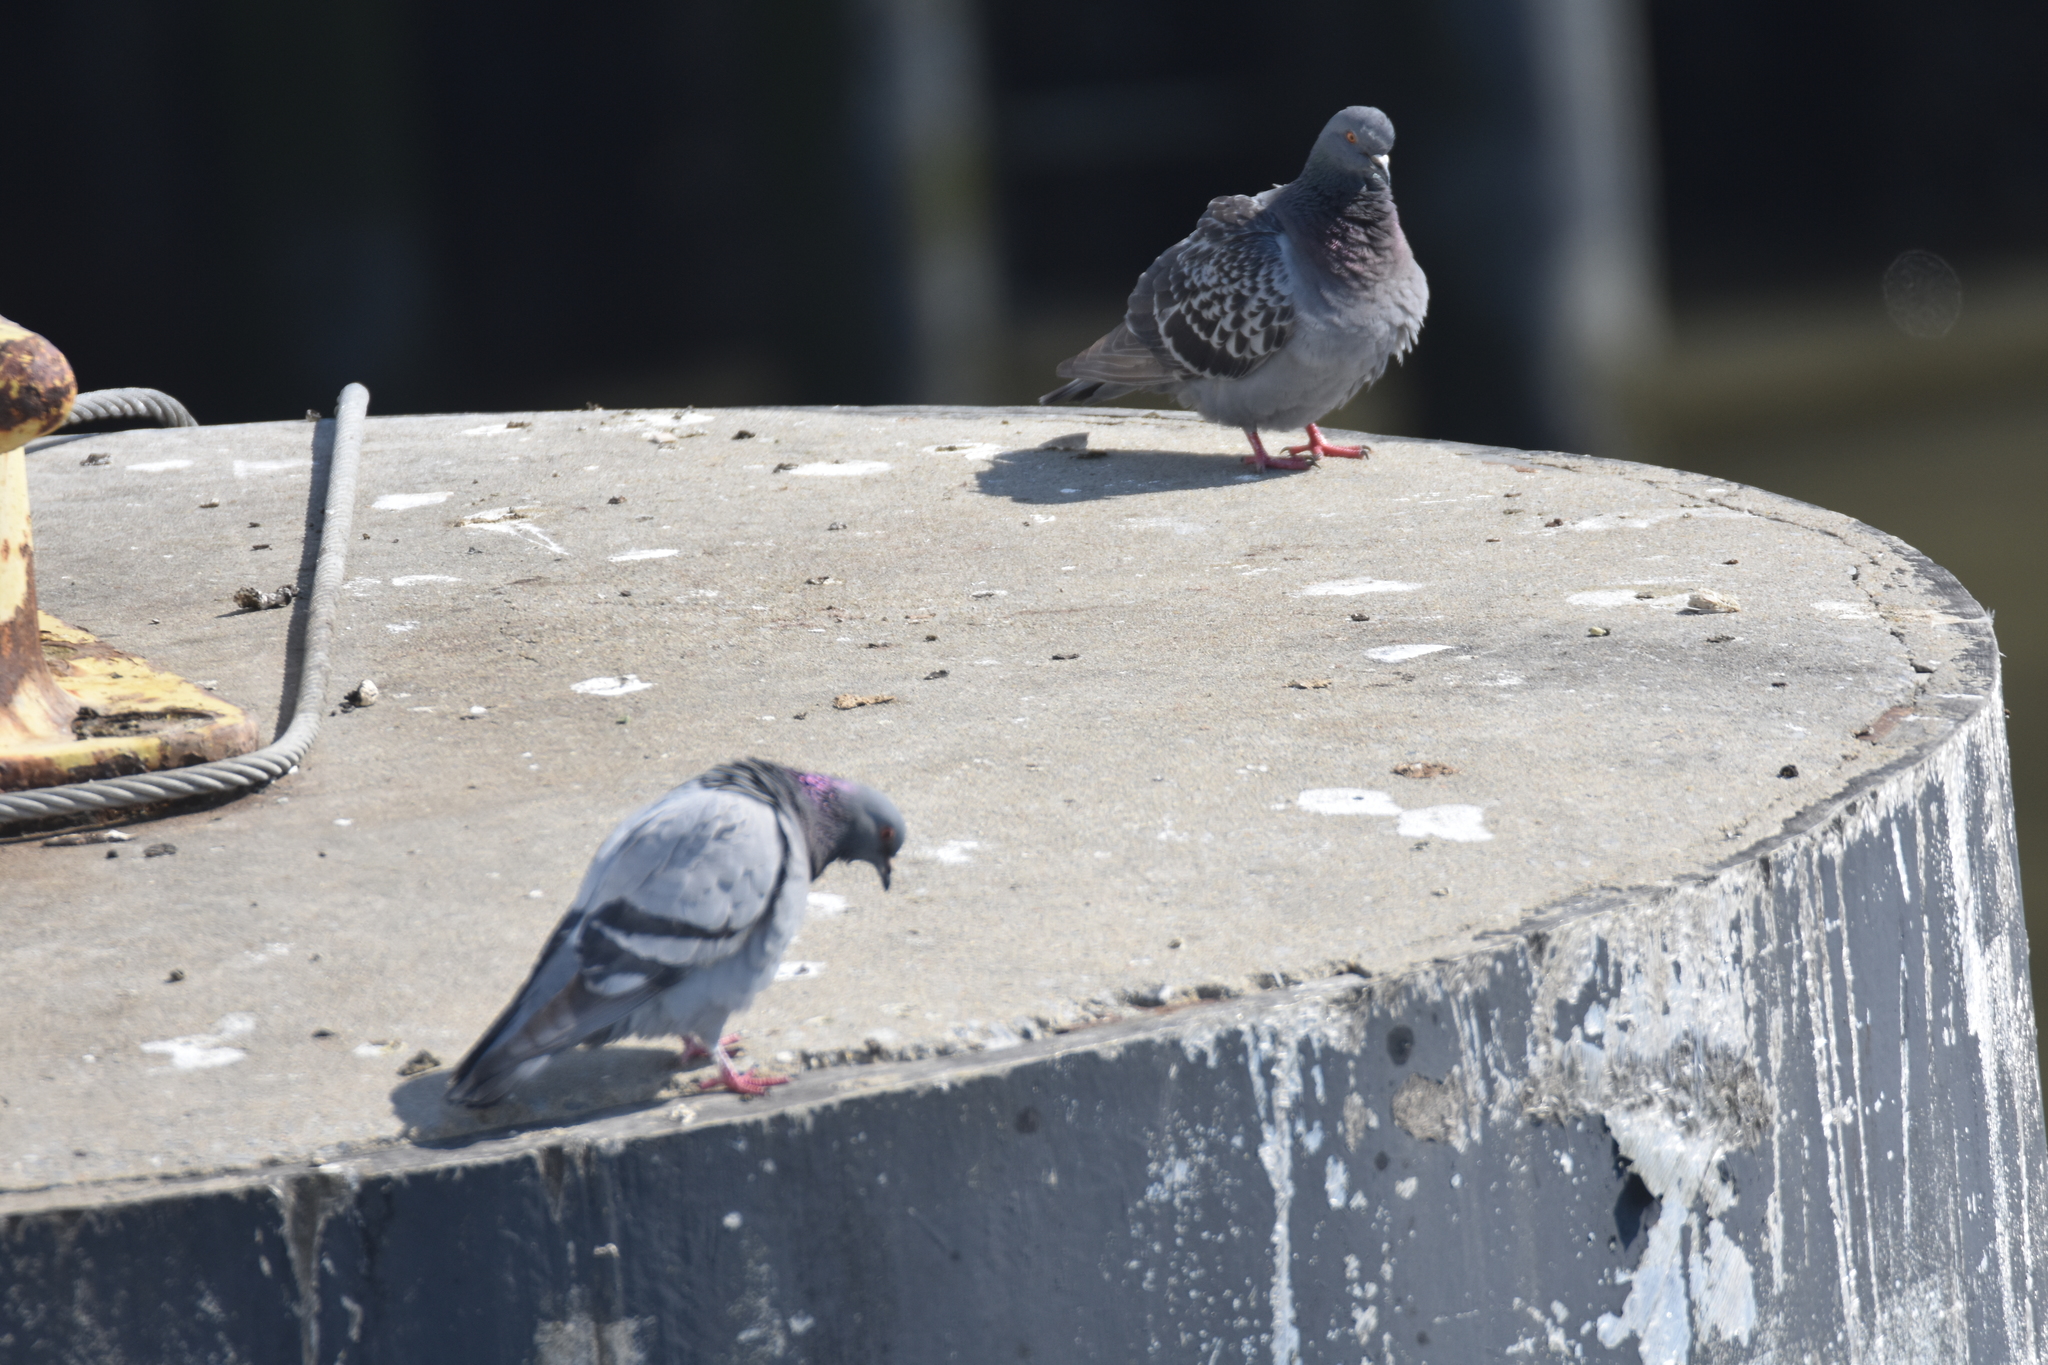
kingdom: Animalia
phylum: Chordata
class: Aves
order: Columbiformes
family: Columbidae
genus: Columba
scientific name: Columba livia
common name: Rock pigeon
